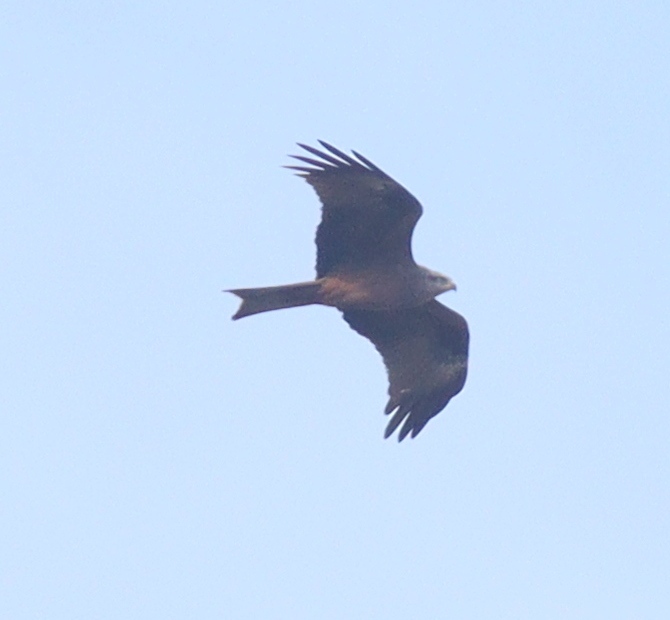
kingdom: Animalia
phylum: Chordata
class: Aves
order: Accipitriformes
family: Accipitridae
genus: Milvus
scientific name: Milvus milvus
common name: Red kite
